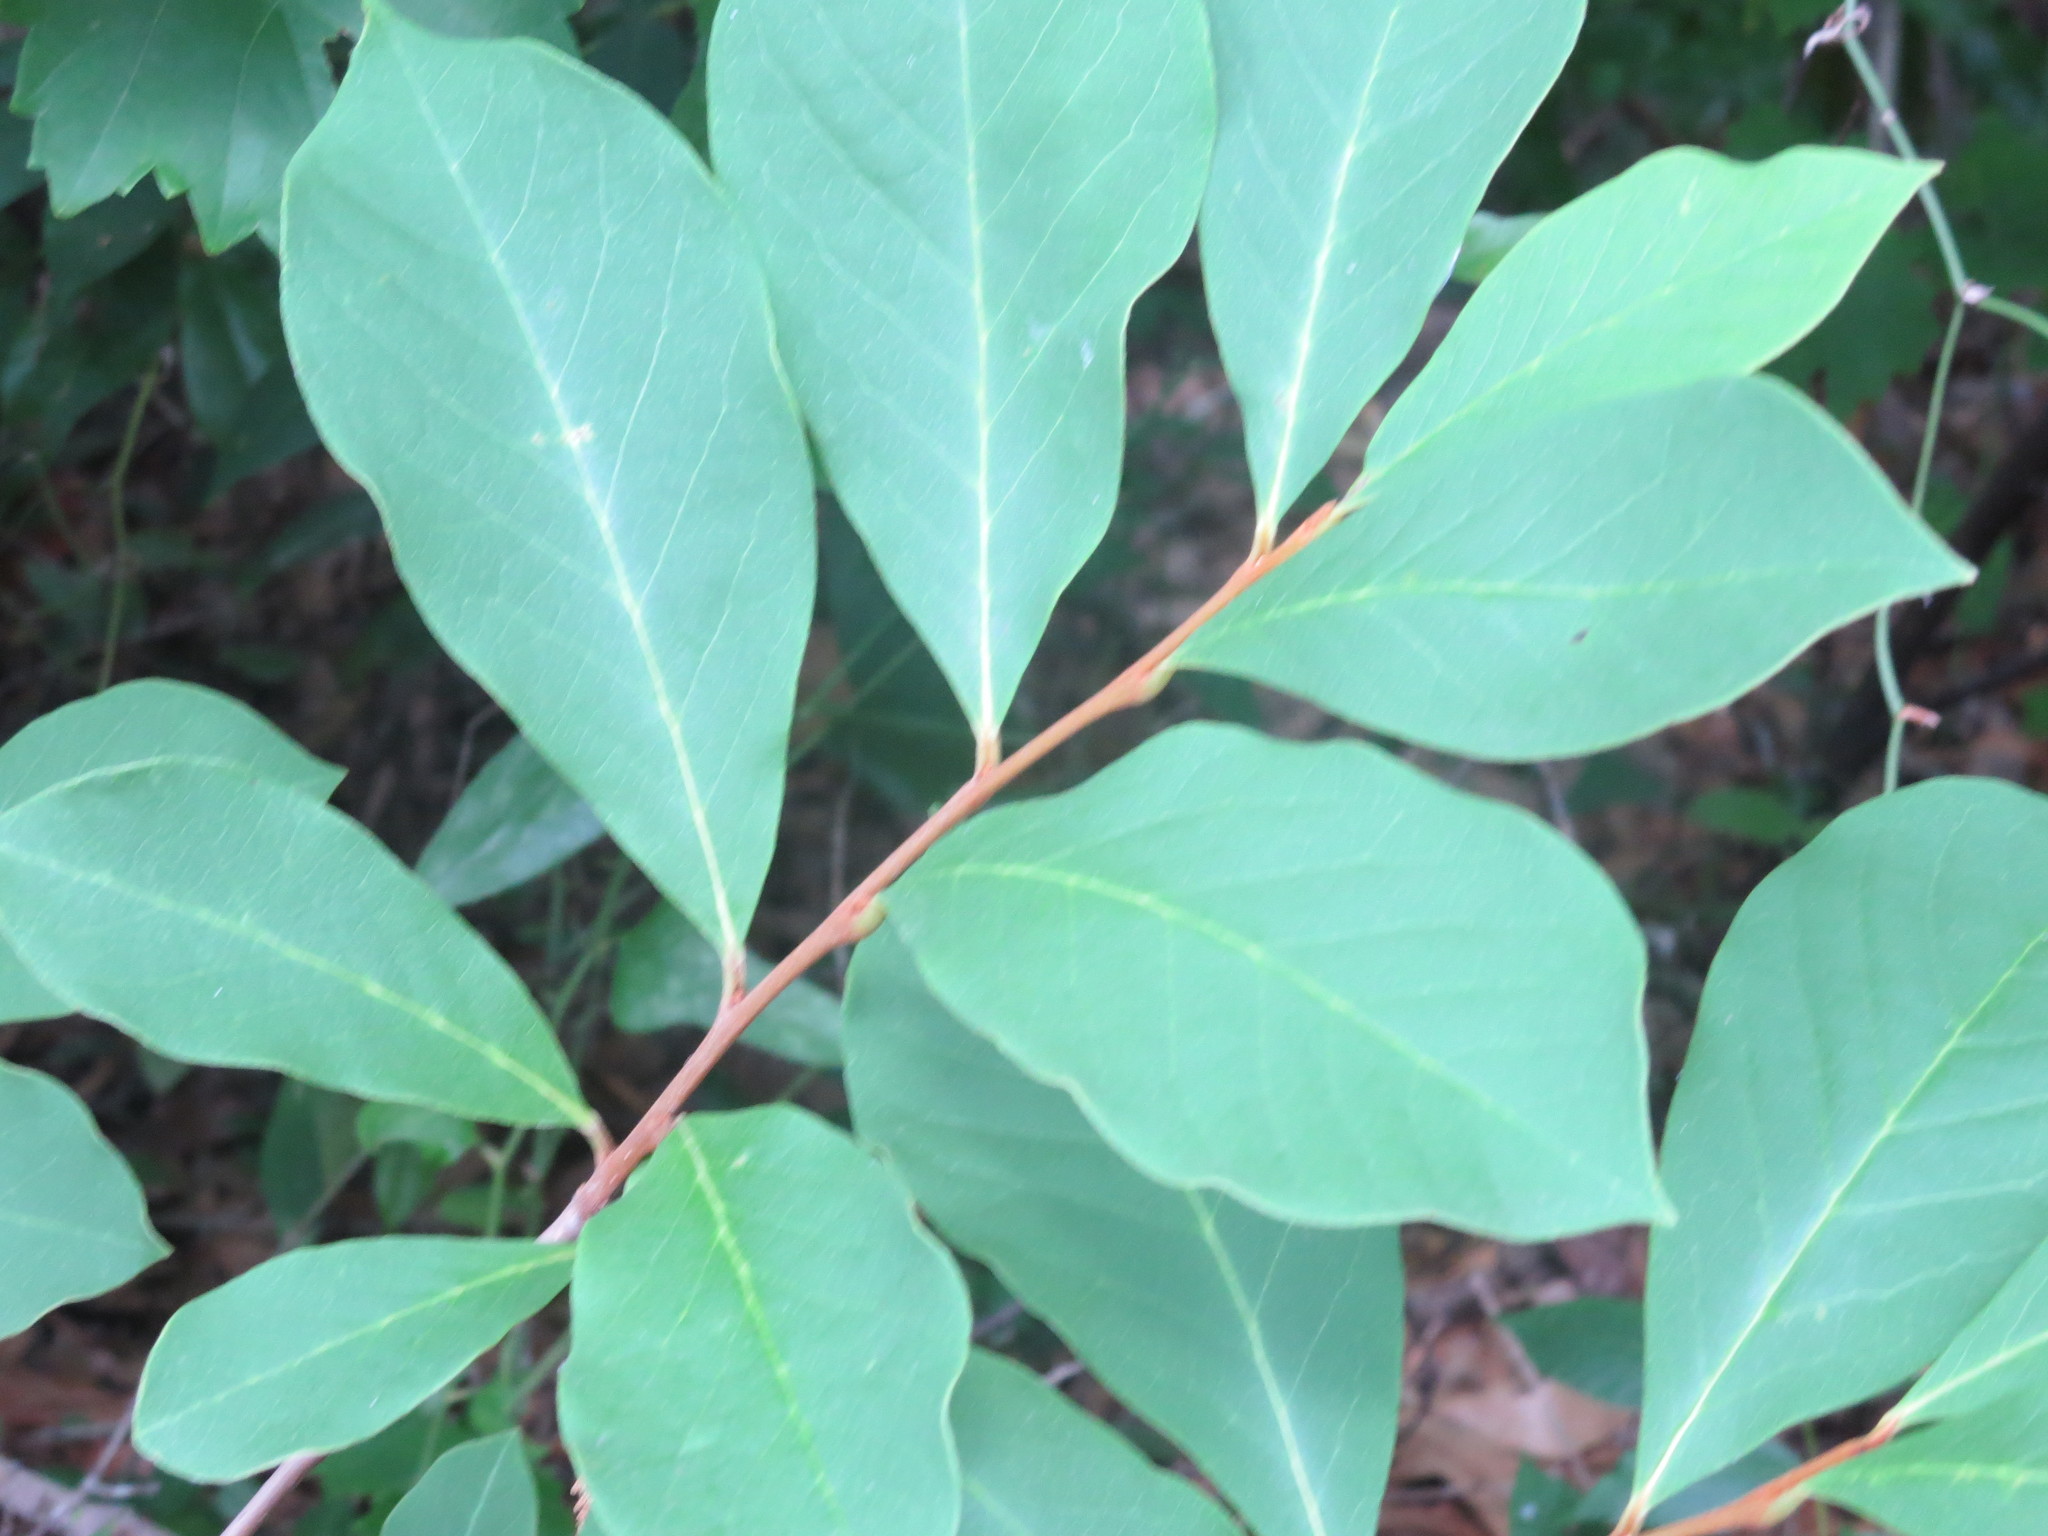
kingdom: Plantae
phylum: Tracheophyta
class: Magnoliopsida
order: Magnoliales
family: Annonaceae
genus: Asimina
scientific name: Asimina parviflora
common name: Dwarf pawpaw
